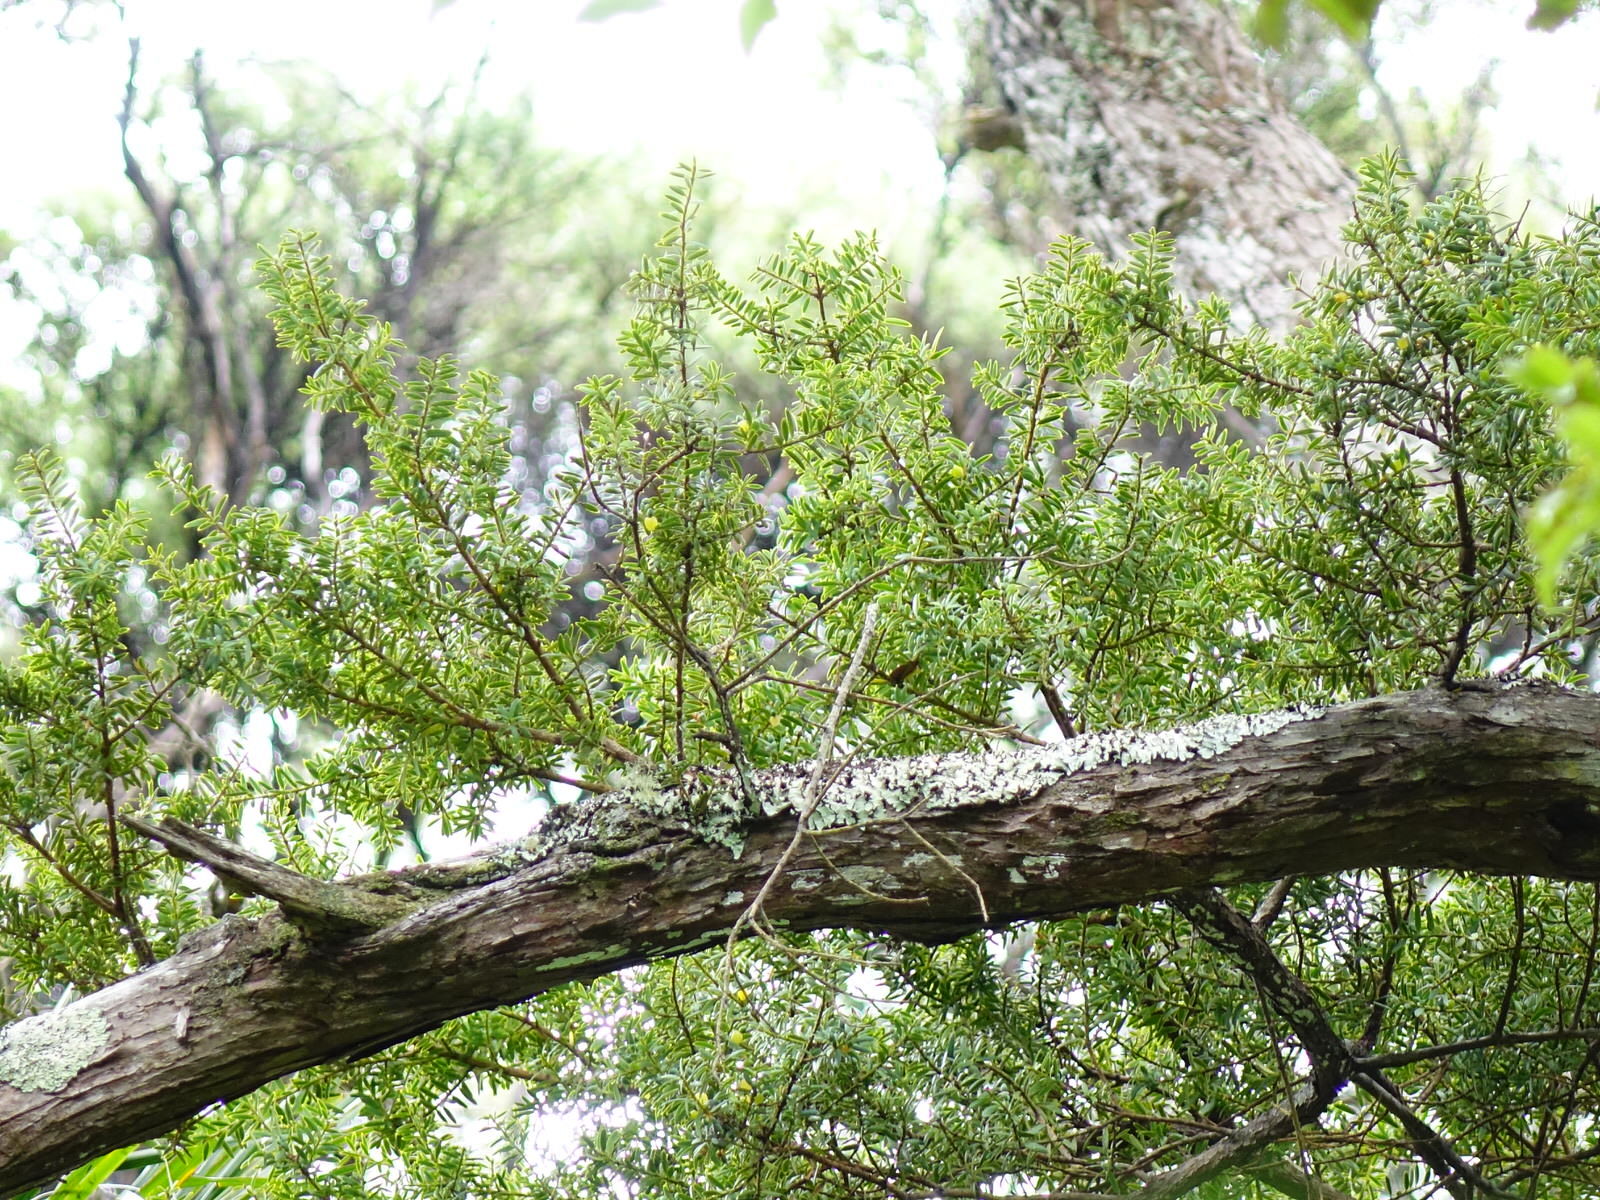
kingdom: Plantae
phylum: Tracheophyta
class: Pinopsida
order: Pinales
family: Podocarpaceae
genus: Podocarpus
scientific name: Podocarpus totara
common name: Totara
